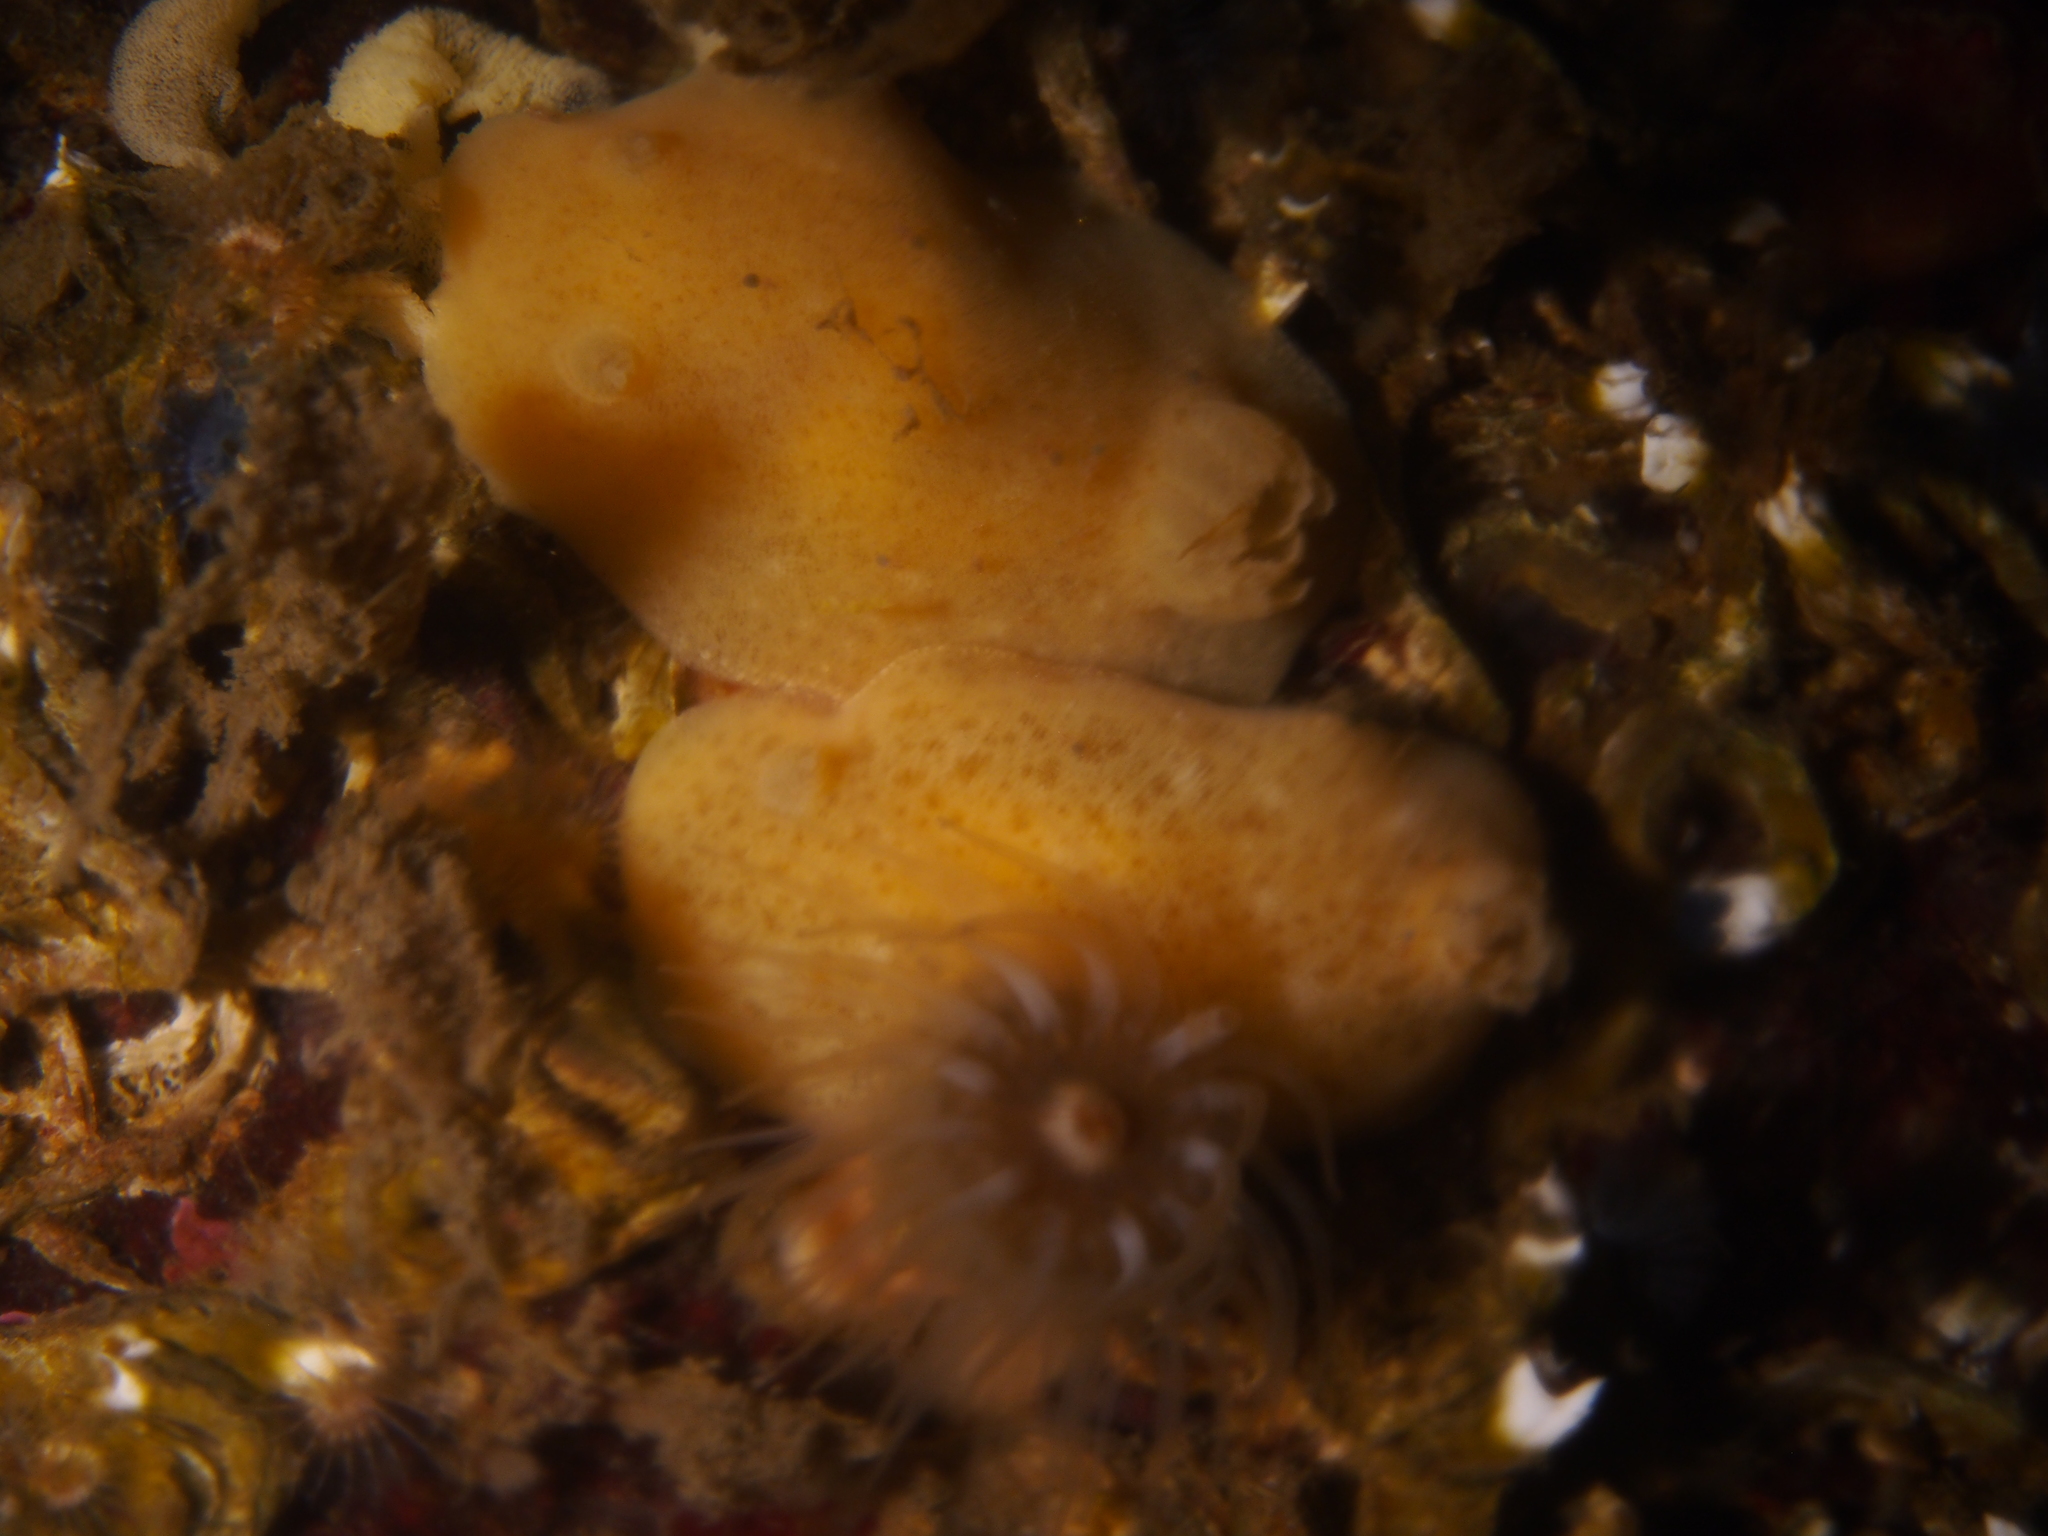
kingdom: Animalia
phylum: Mollusca
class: Gastropoda
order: Nudibranchia
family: Discodorididae
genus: Jorunna
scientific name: Jorunna tomentosa
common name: Grey sea slug
